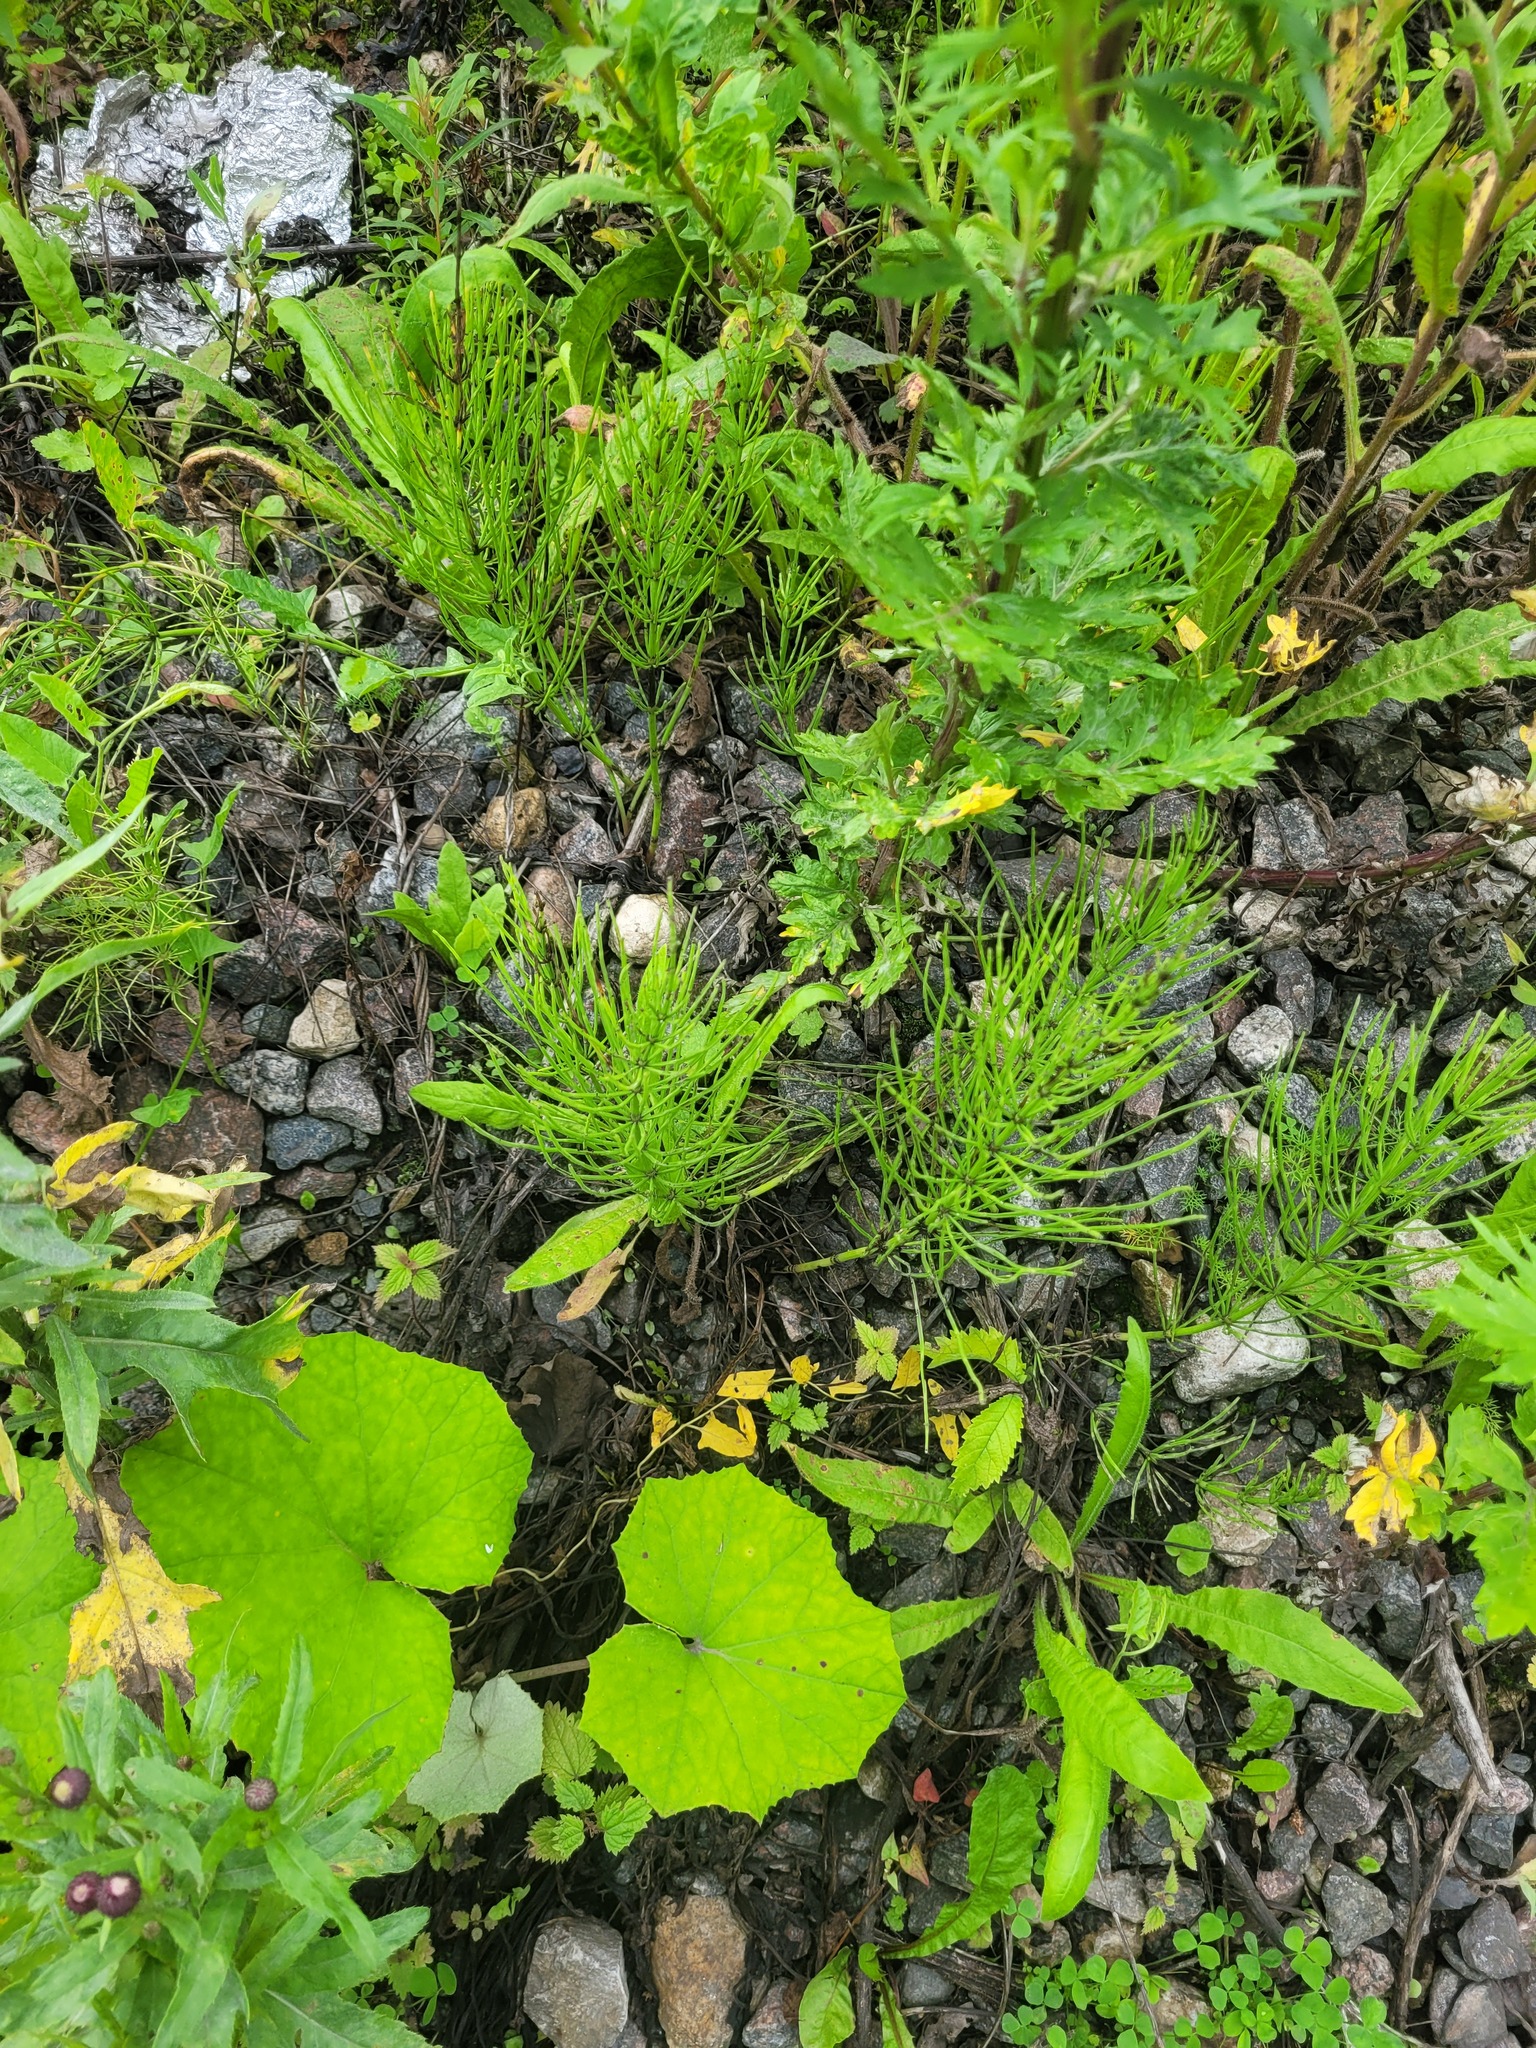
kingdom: Plantae
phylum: Tracheophyta
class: Polypodiopsida
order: Equisetales
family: Equisetaceae
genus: Equisetum
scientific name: Equisetum arvense
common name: Field horsetail
